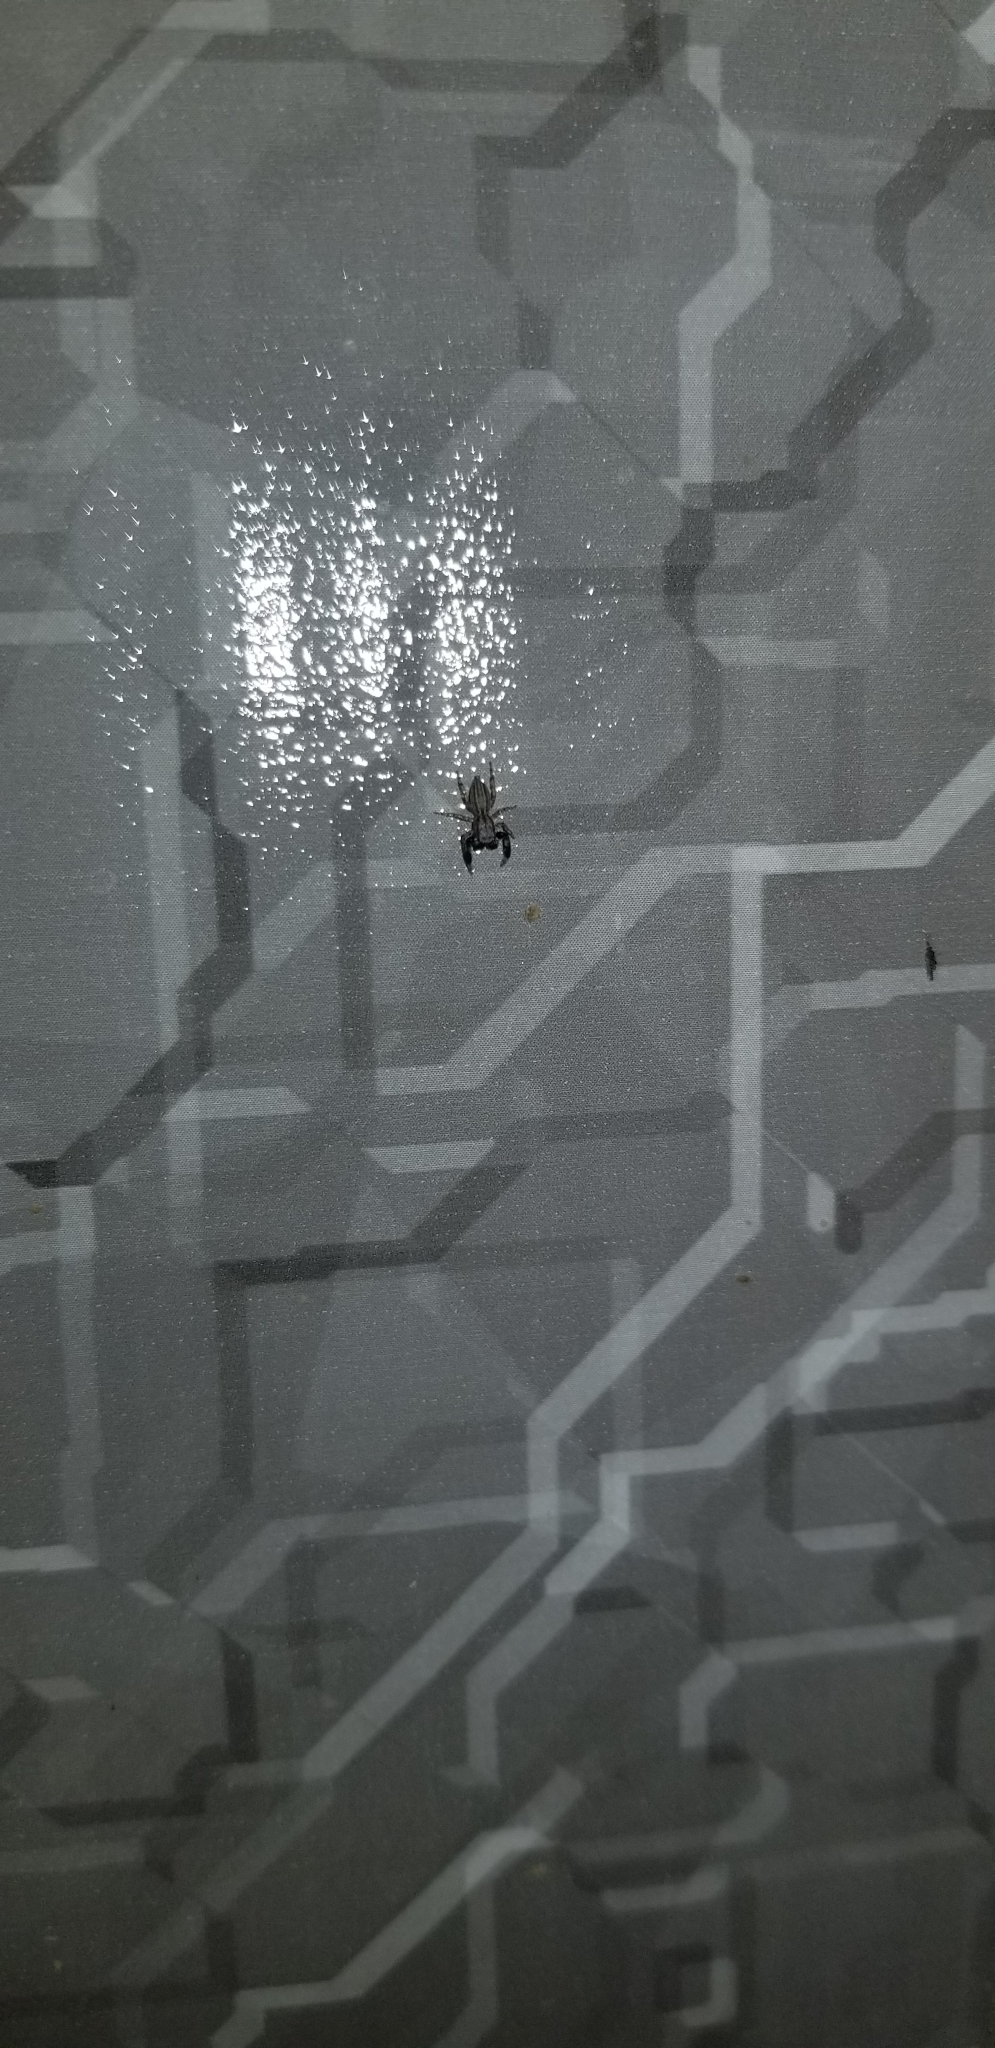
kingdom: Animalia
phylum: Arthropoda
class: Arachnida
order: Araneae
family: Salticidae
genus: Marpissa
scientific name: Marpissa lineata
